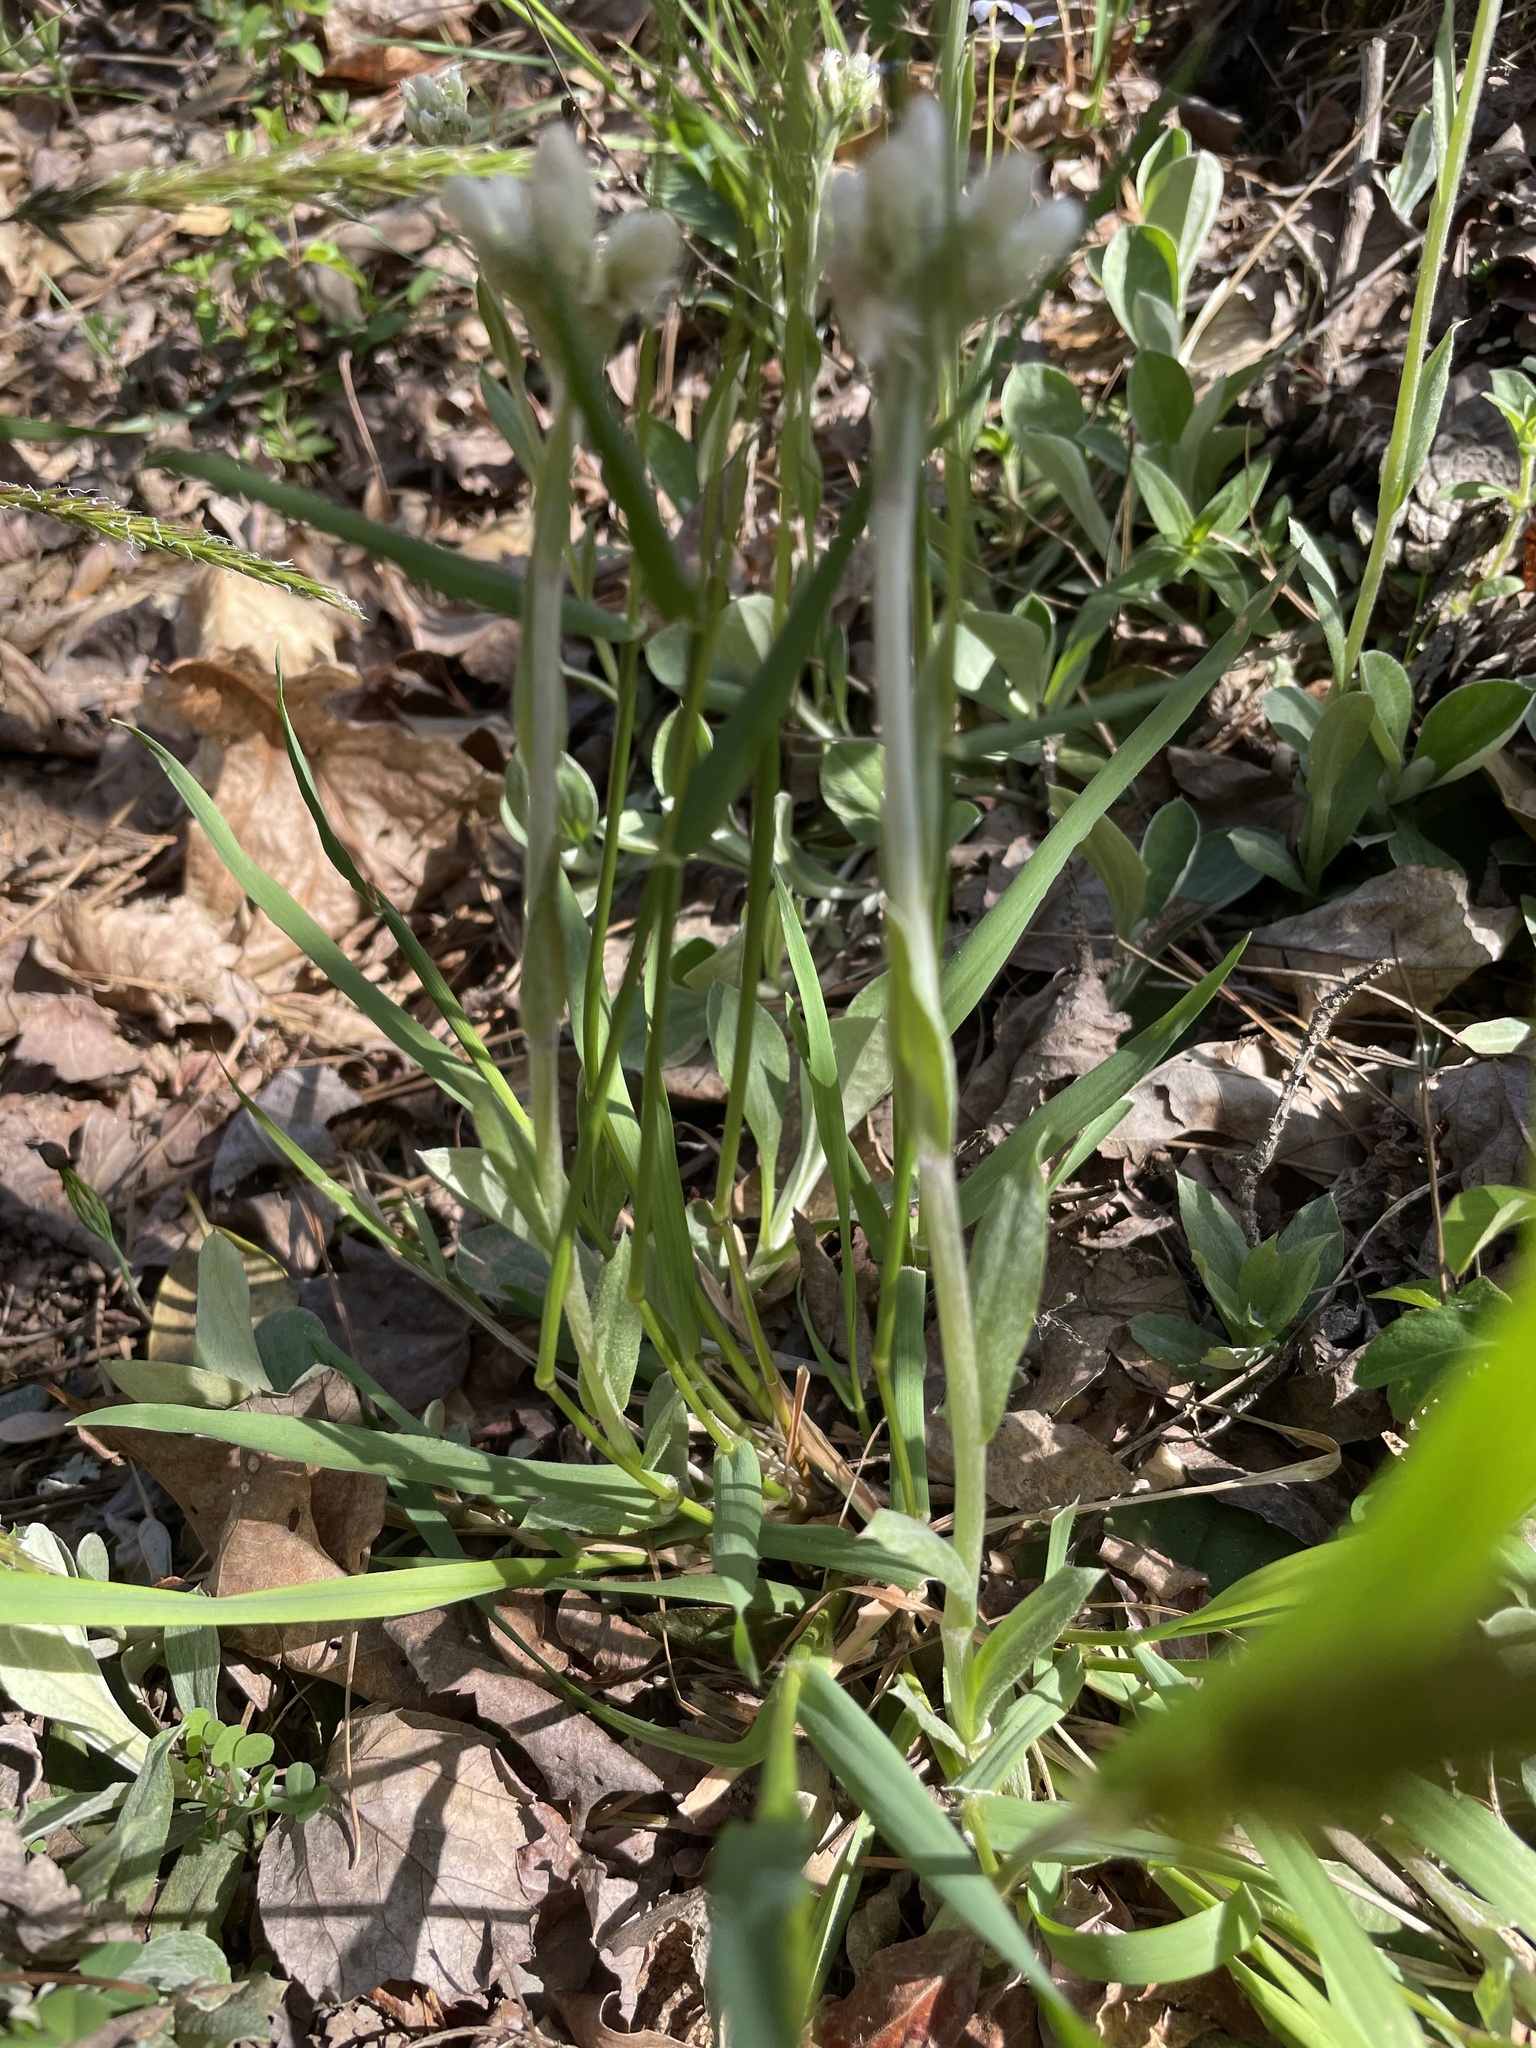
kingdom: Plantae
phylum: Tracheophyta
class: Liliopsida
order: Poales
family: Poaceae
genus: Anthoxanthum
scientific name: Anthoxanthum odoratum
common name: Sweet vernalgrass
